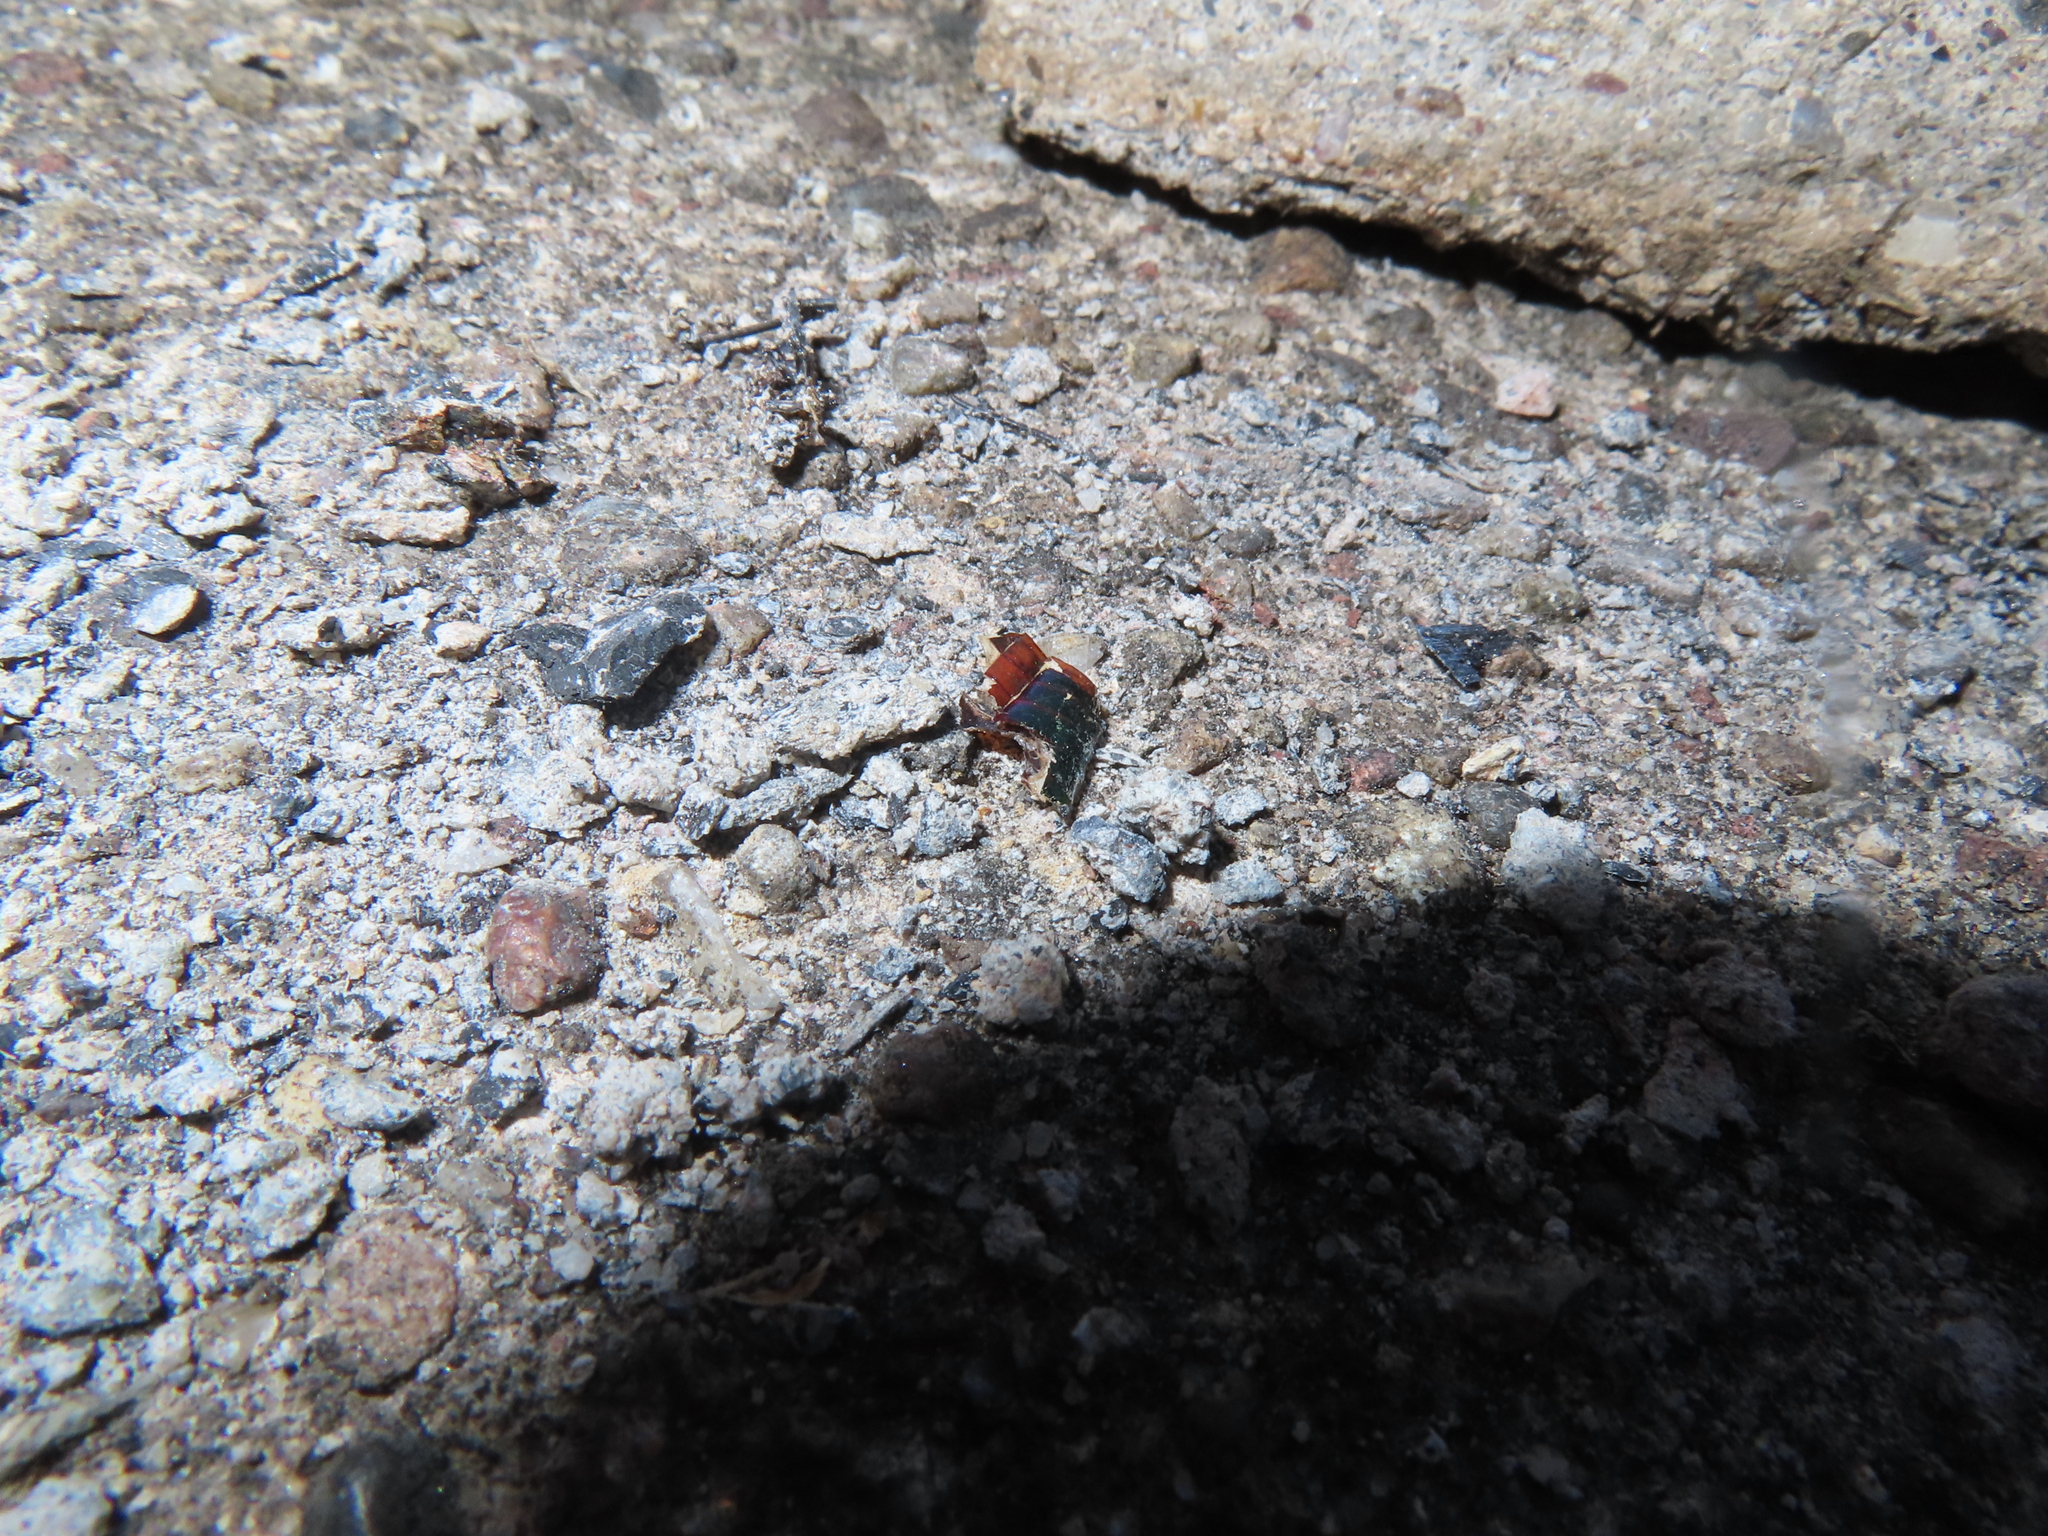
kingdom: Animalia
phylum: Arthropoda
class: Insecta
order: Coleoptera
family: Scarabaeidae
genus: Cotinis
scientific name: Cotinis nitida
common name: Common green june beetle
